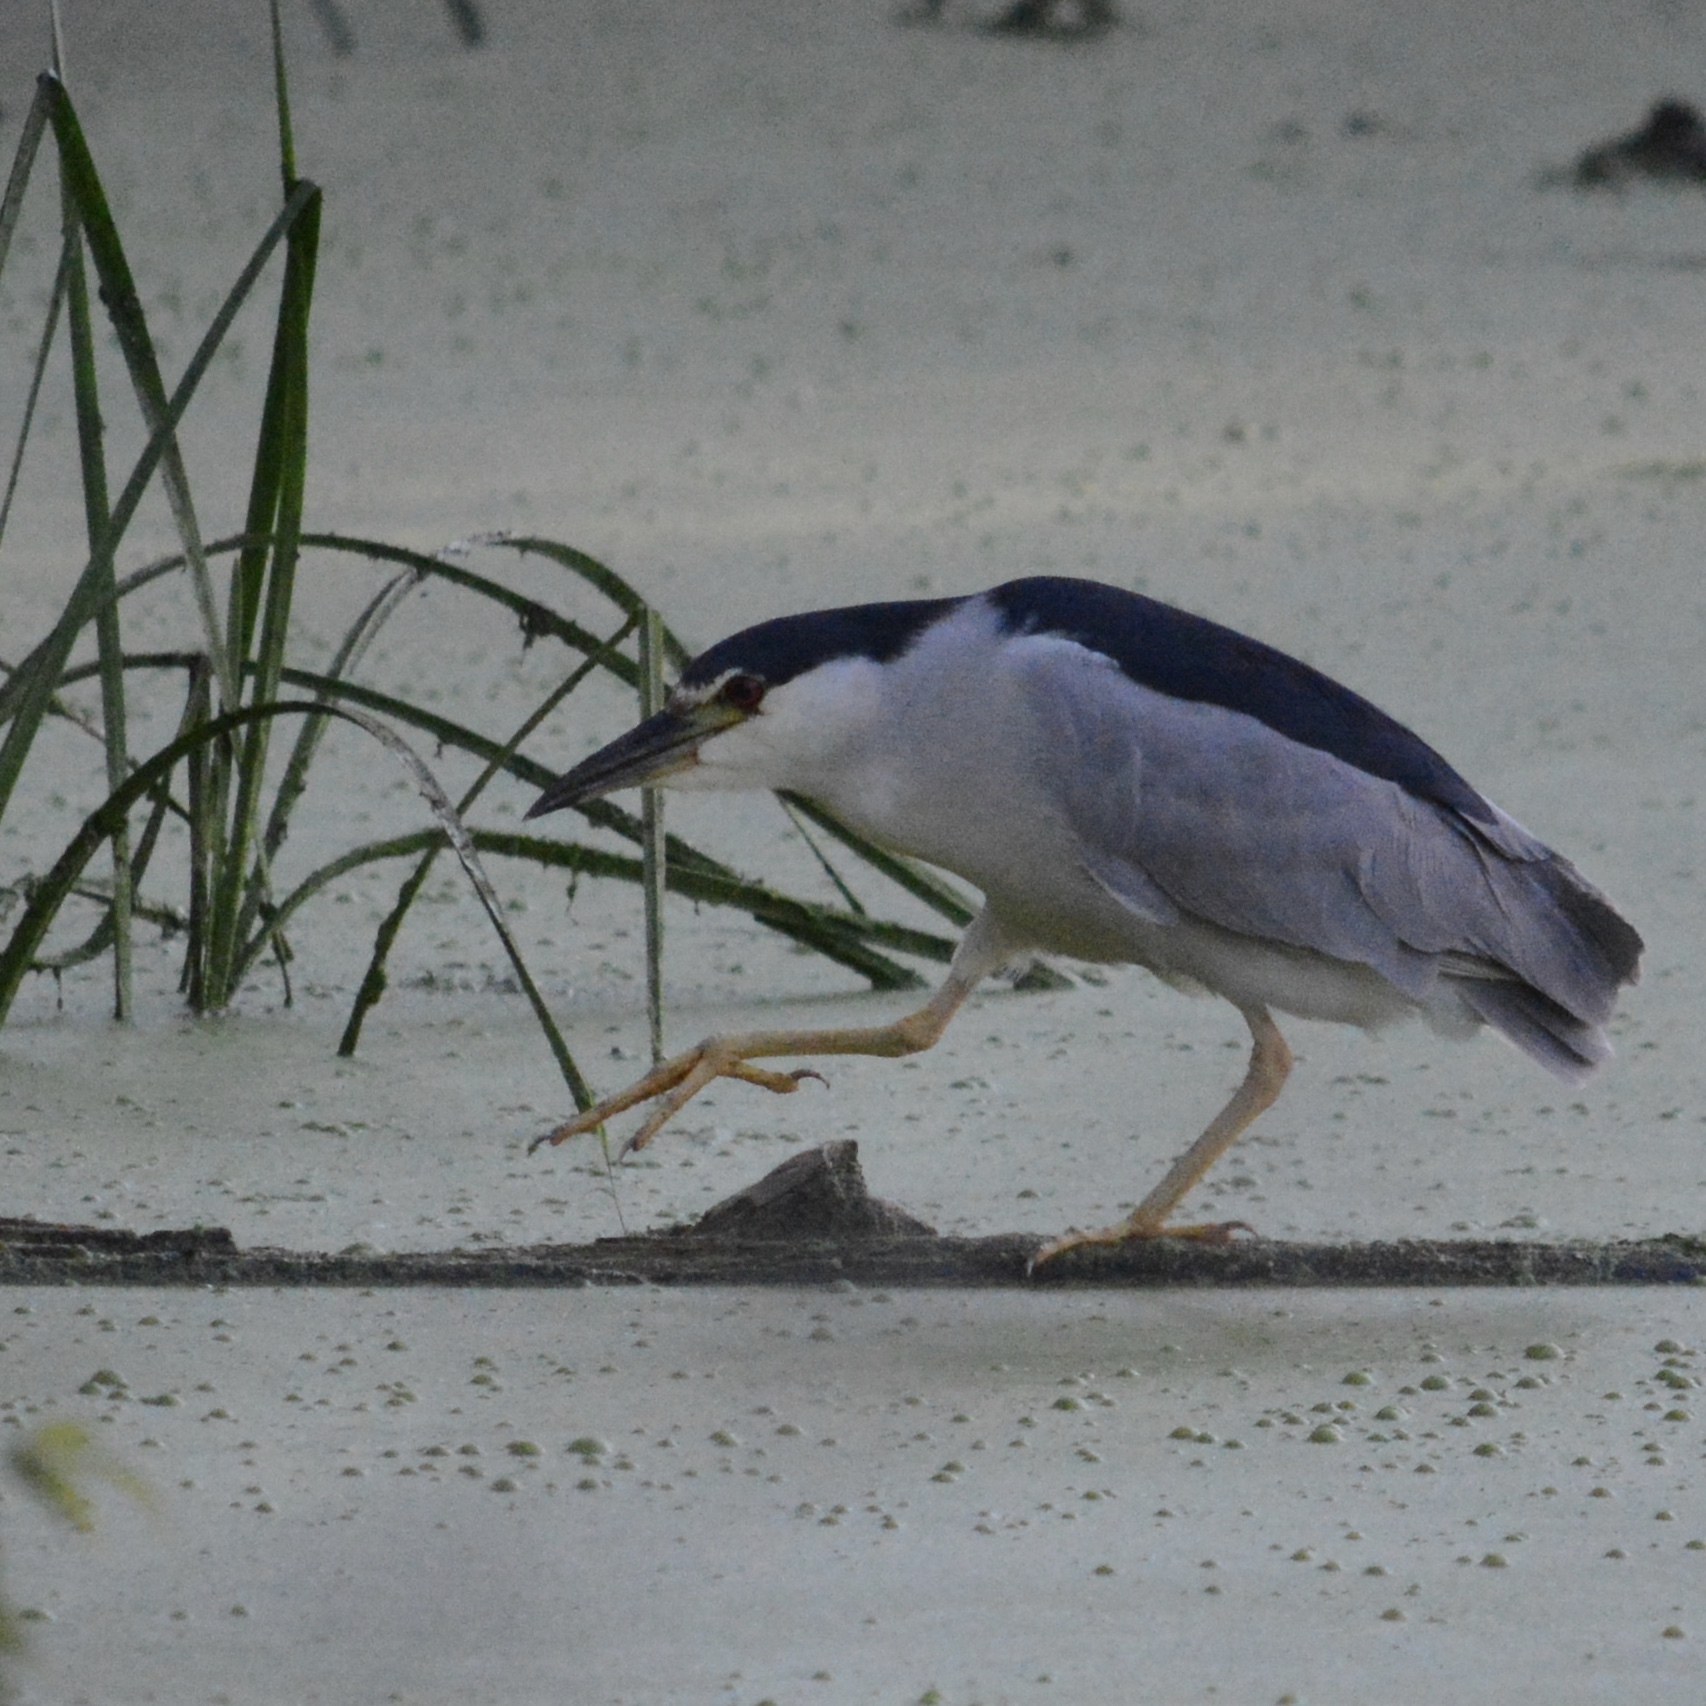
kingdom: Animalia
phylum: Chordata
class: Aves
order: Pelecaniformes
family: Ardeidae
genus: Nycticorax
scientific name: Nycticorax nycticorax
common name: Black-crowned night heron
